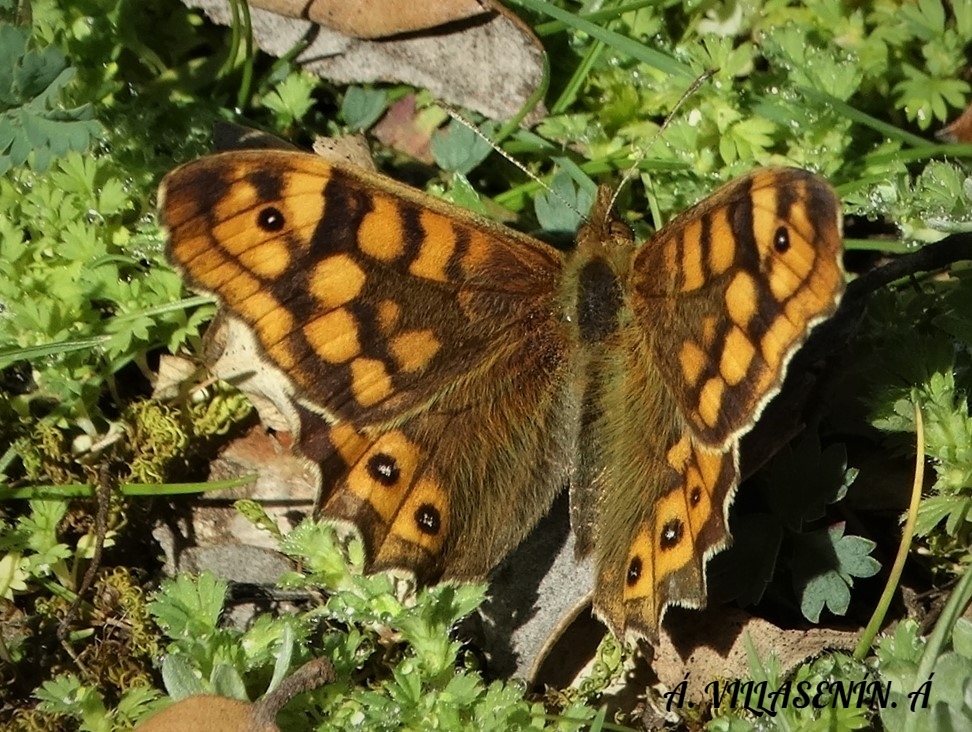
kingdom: Animalia
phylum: Arthropoda
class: Insecta
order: Lepidoptera
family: Nymphalidae
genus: Pararge
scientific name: Pararge aegeria
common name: Speckled wood
